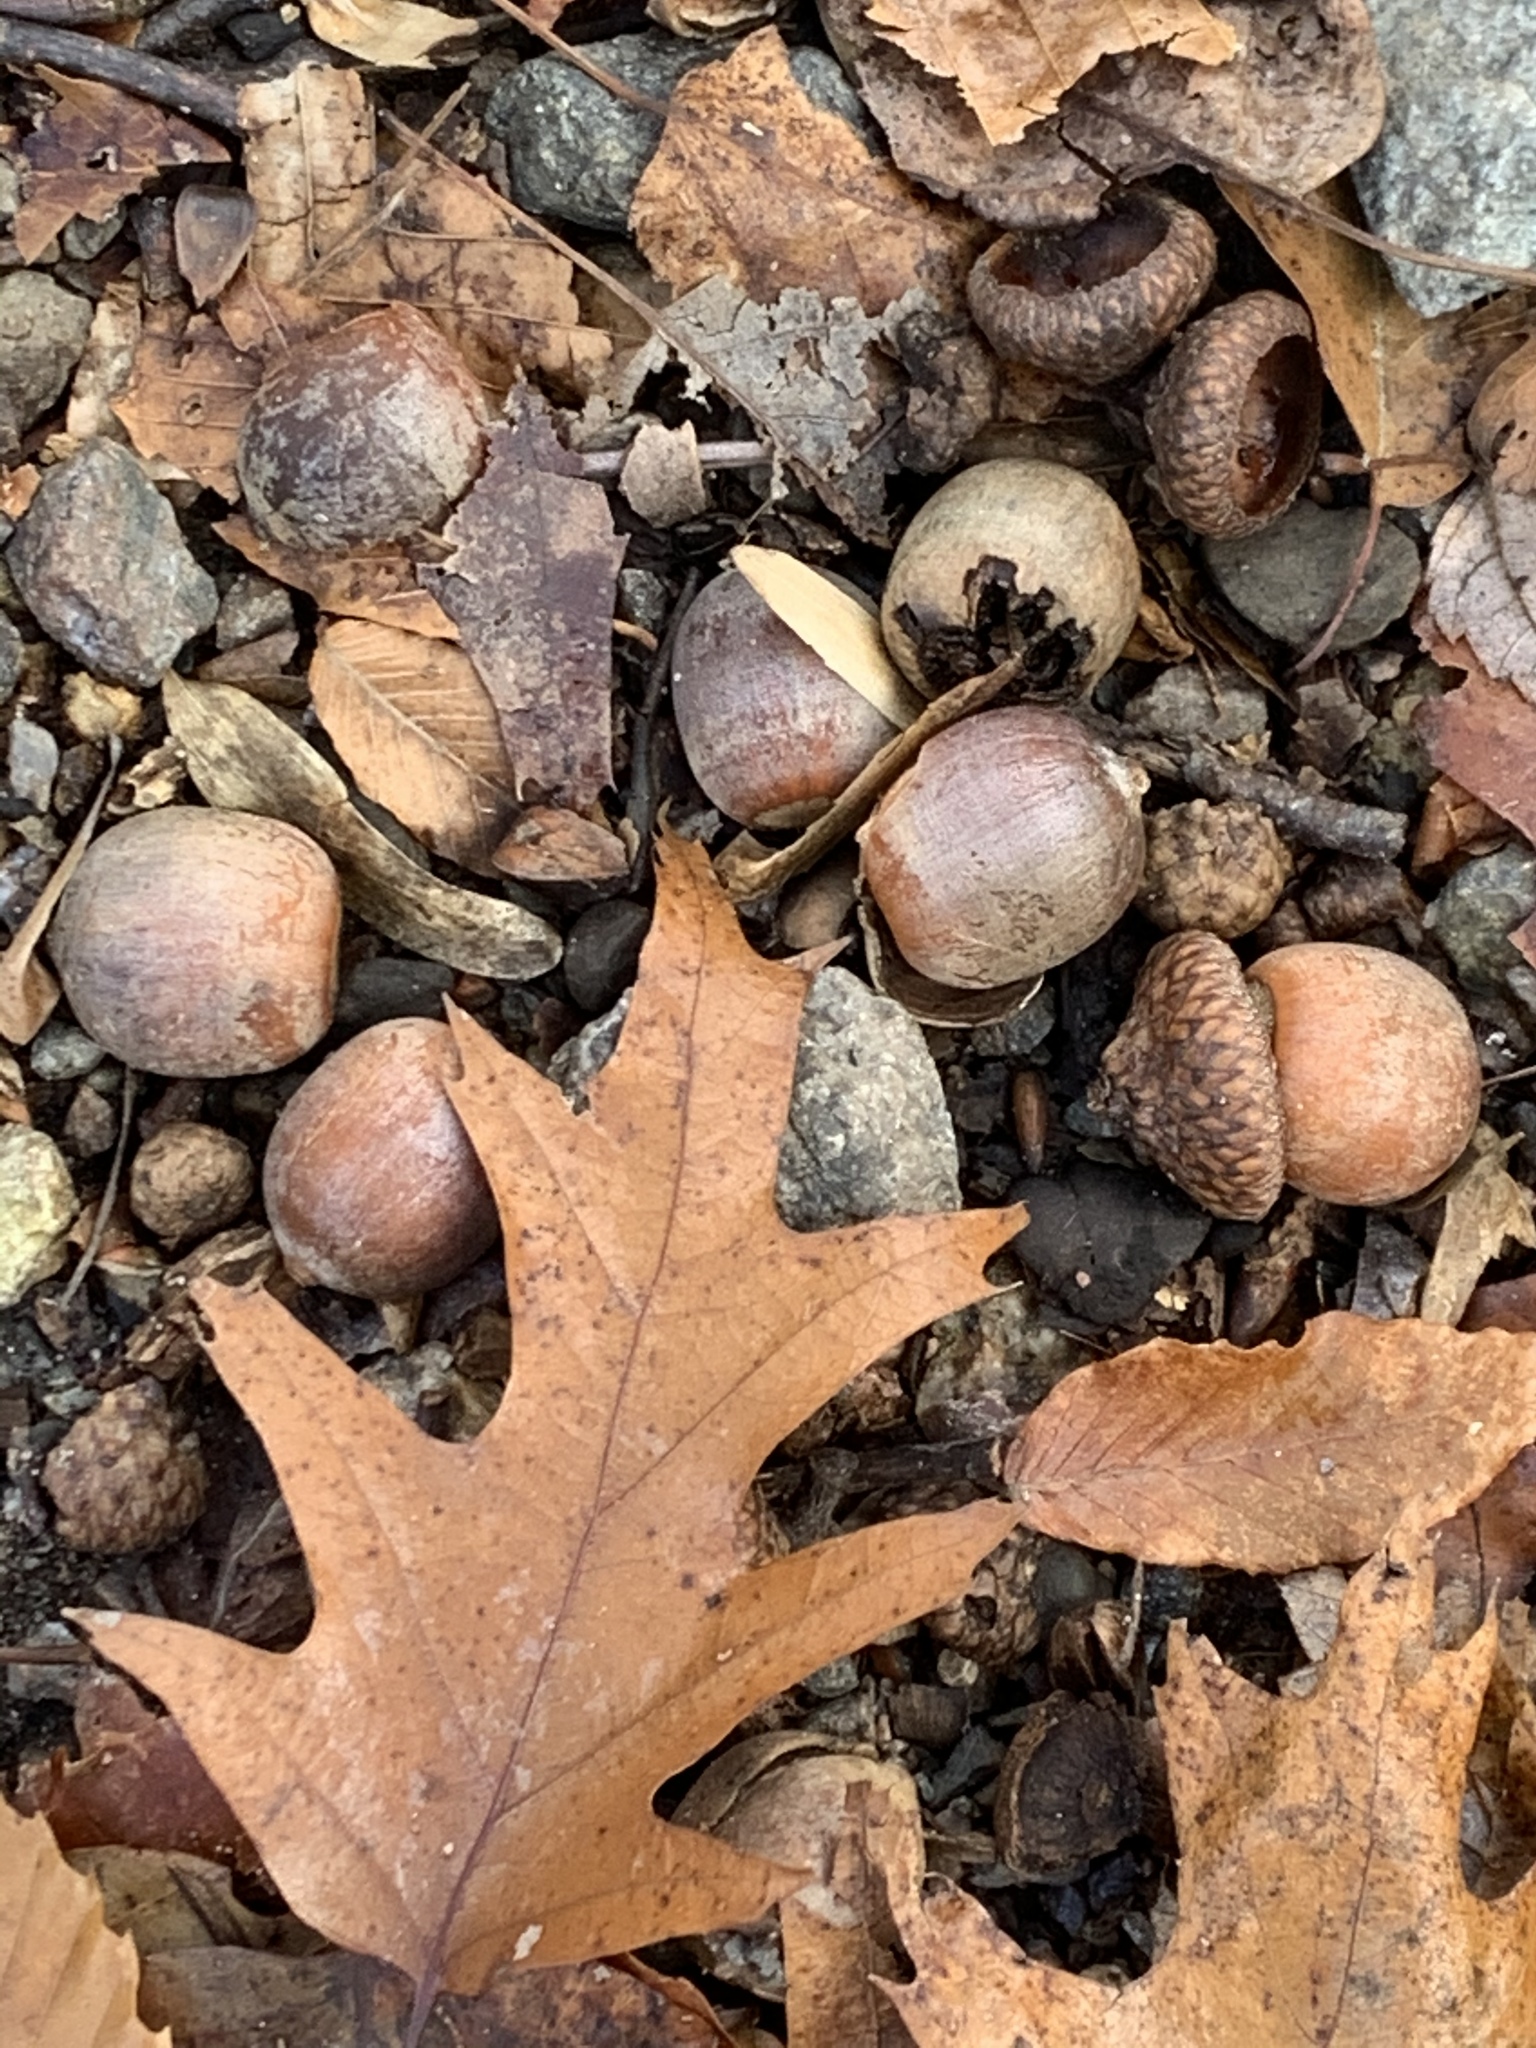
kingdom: Plantae
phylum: Tracheophyta
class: Magnoliopsida
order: Fagales
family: Fagaceae
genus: Quercus
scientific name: Quercus rubra
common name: Red oak
